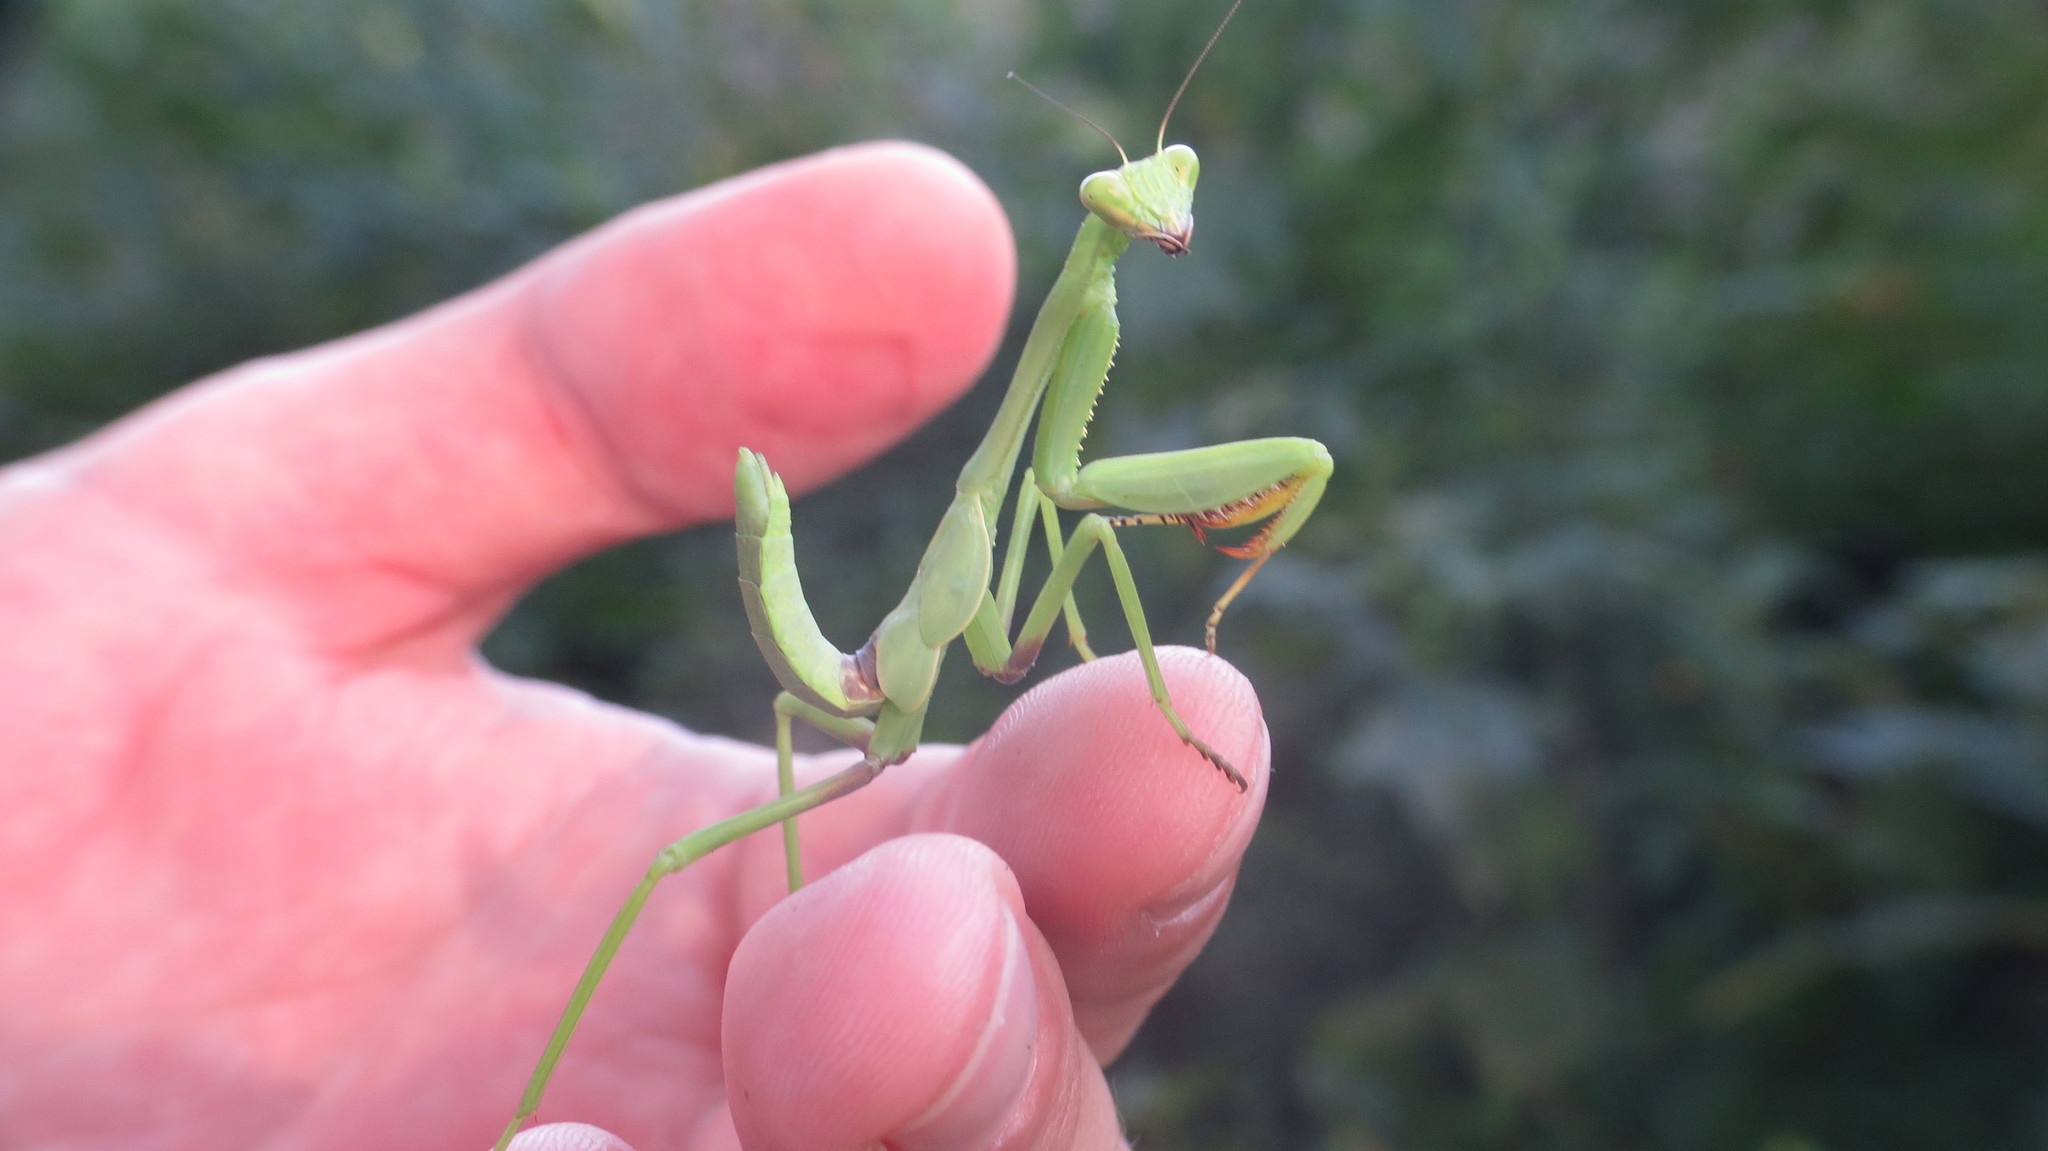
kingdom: Animalia
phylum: Arthropoda
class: Insecta
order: Mantodea
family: Mantidae
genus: Stagmatoptera
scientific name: Stagmatoptera hyaloptera
